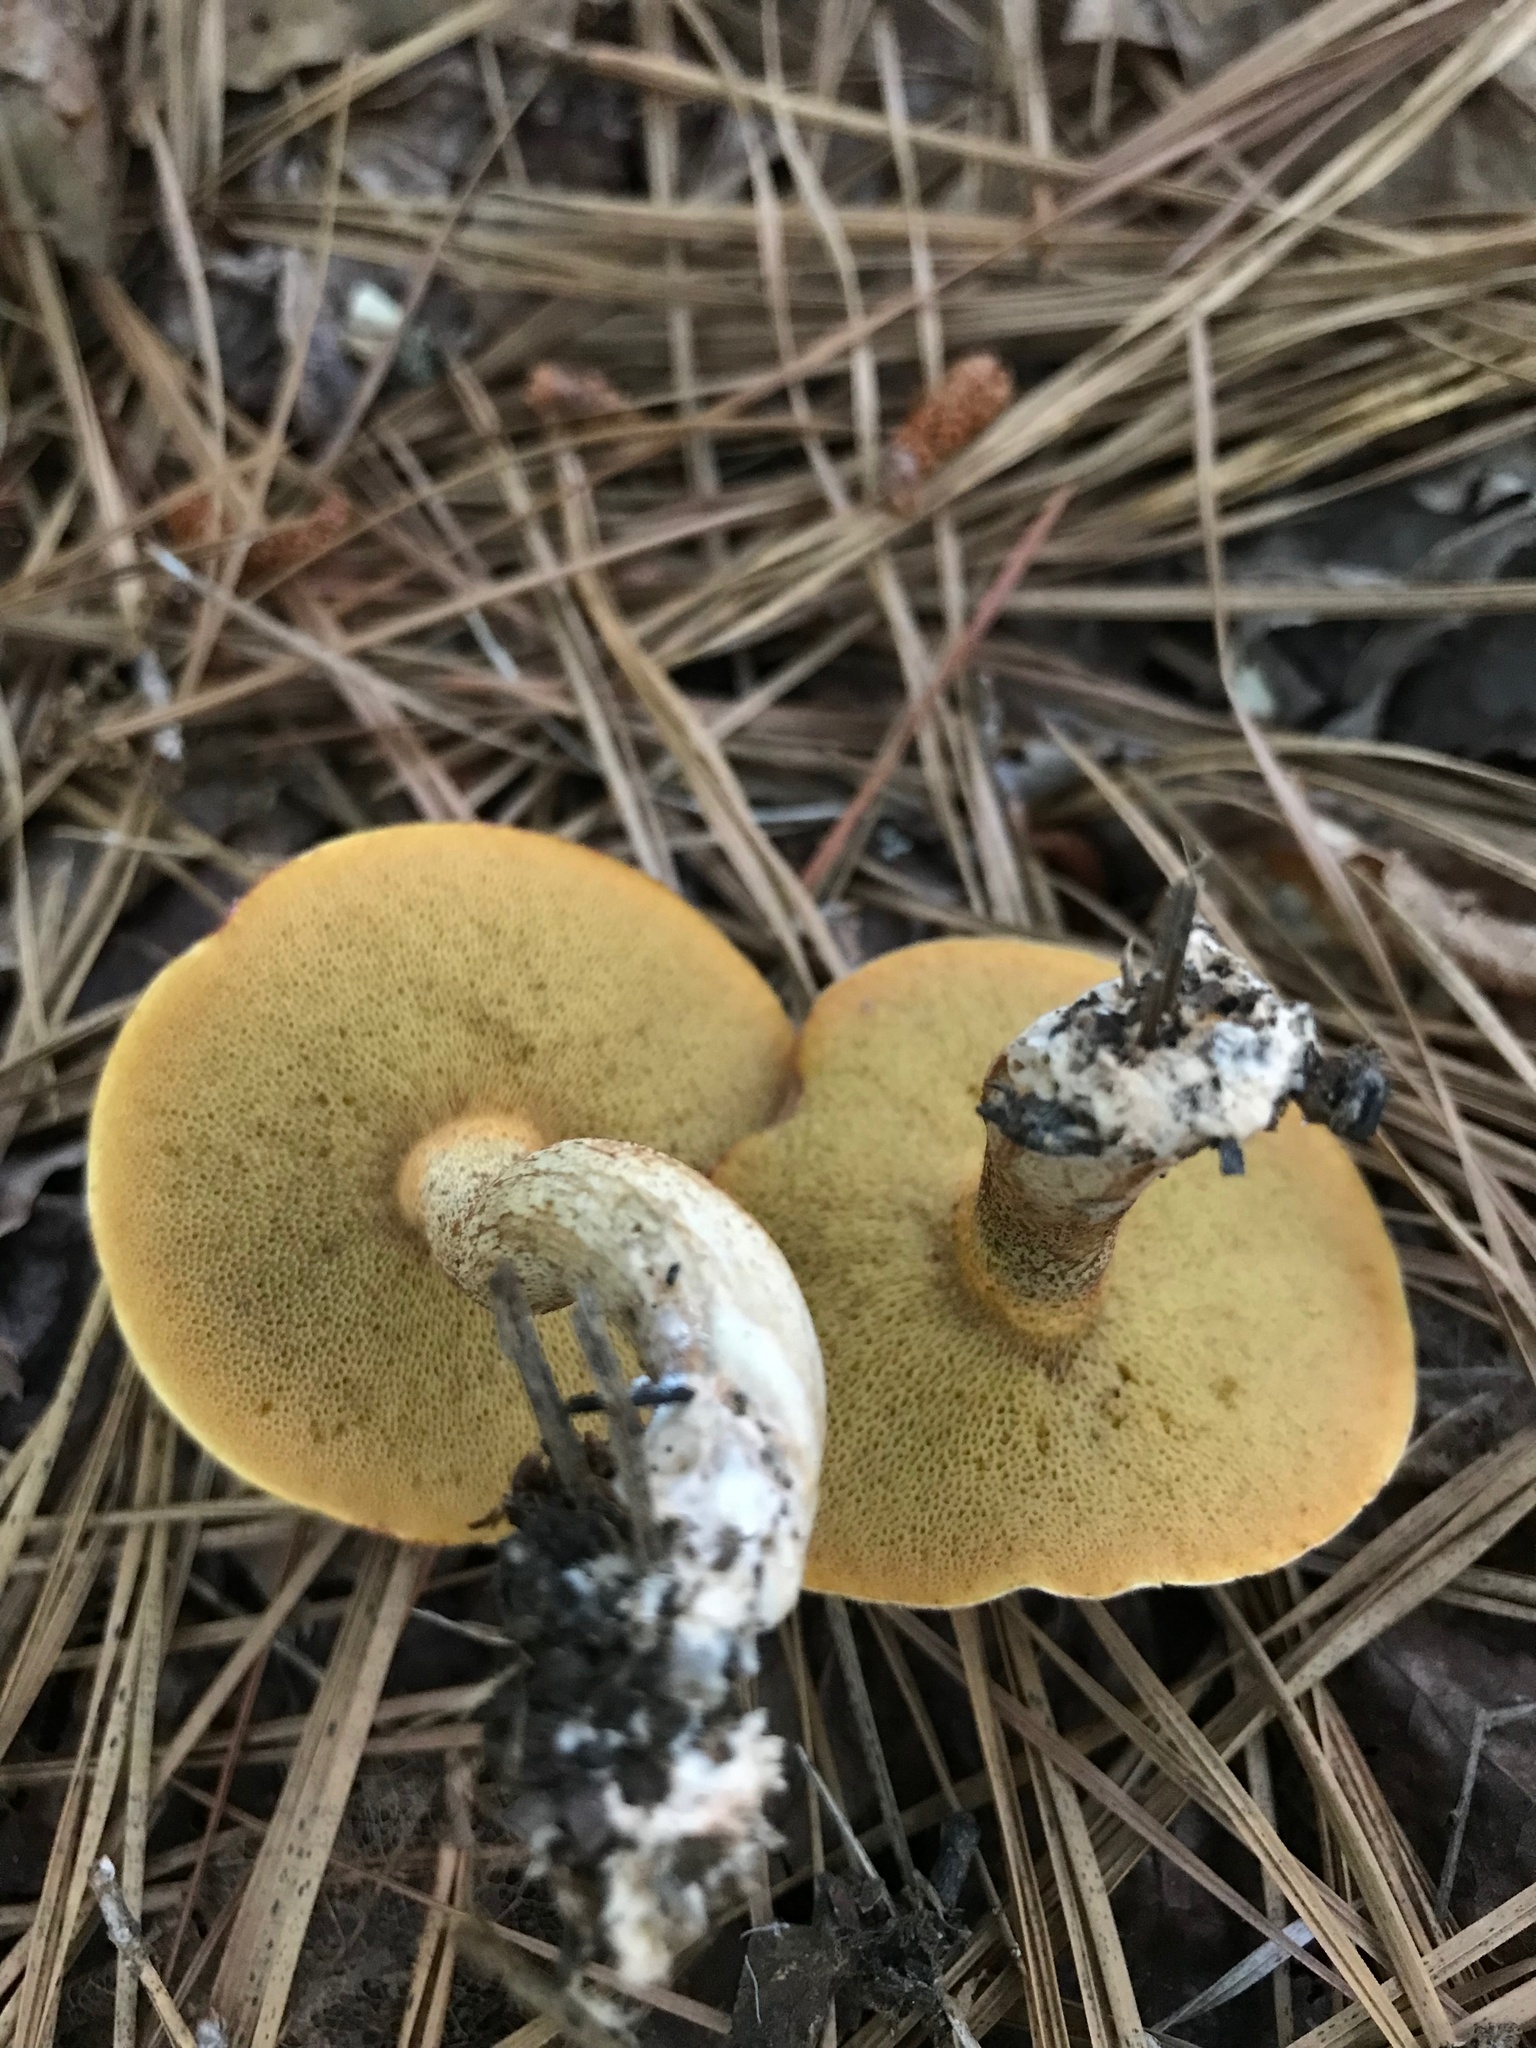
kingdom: Fungi
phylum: Basidiomycota
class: Agaricomycetes
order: Boletales
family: Suillaceae
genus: Suillus
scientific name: Suillus hirtellus
